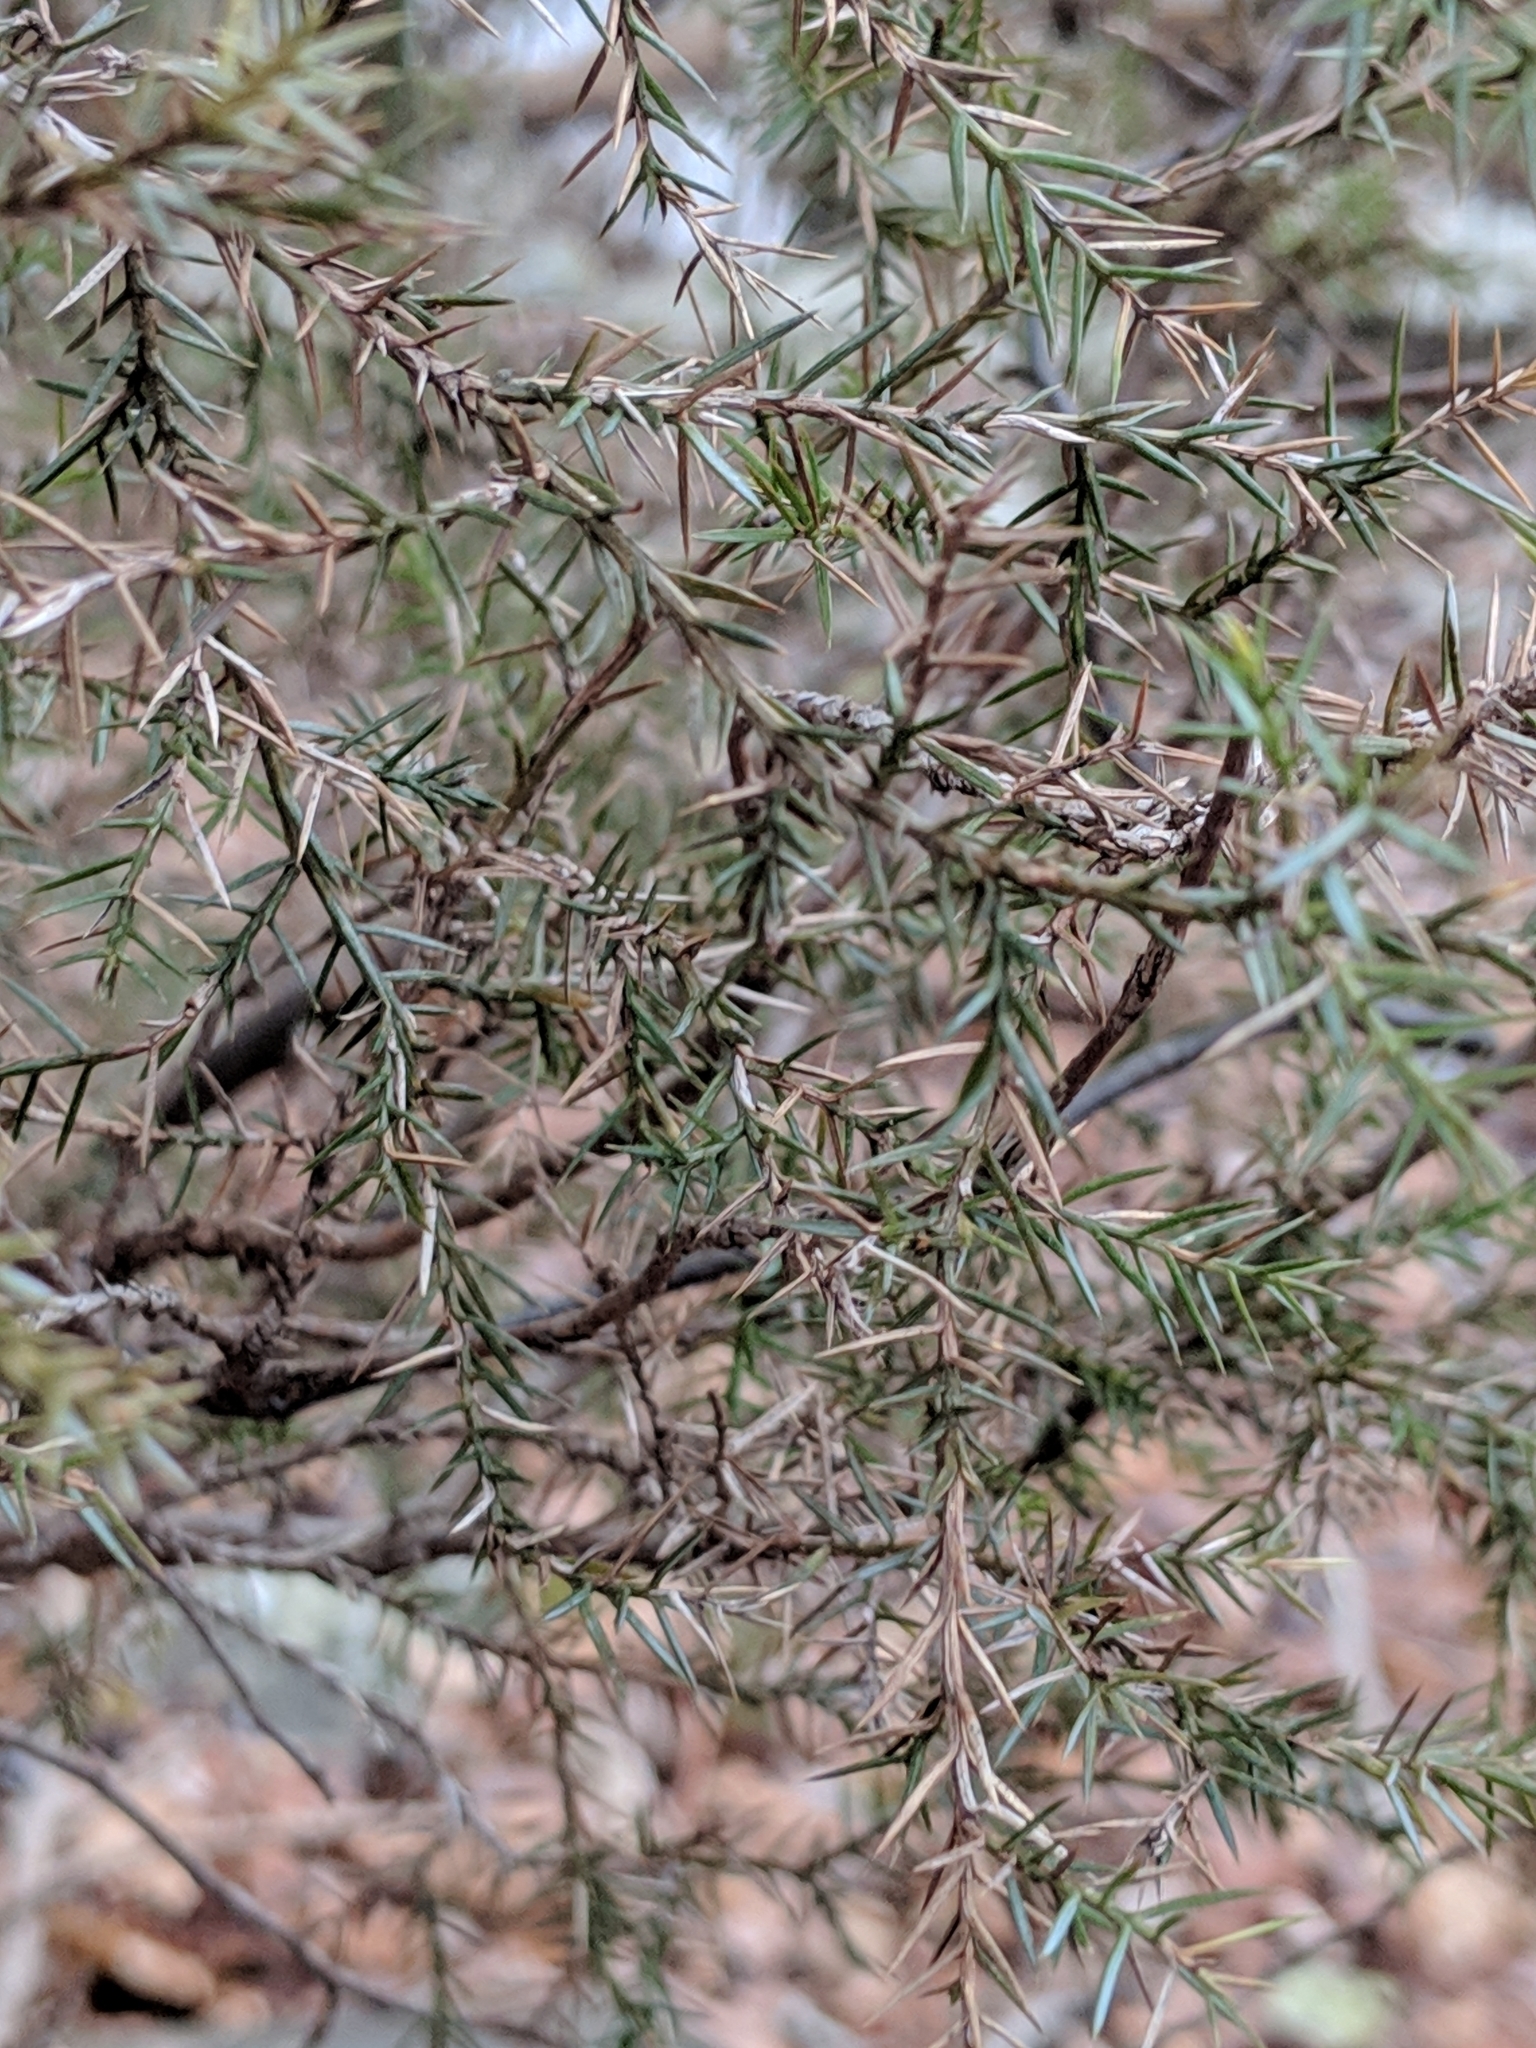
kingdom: Plantae
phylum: Tracheophyta
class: Pinopsida
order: Pinales
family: Cupressaceae
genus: Juniperus
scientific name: Juniperus virginiana
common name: Red juniper
